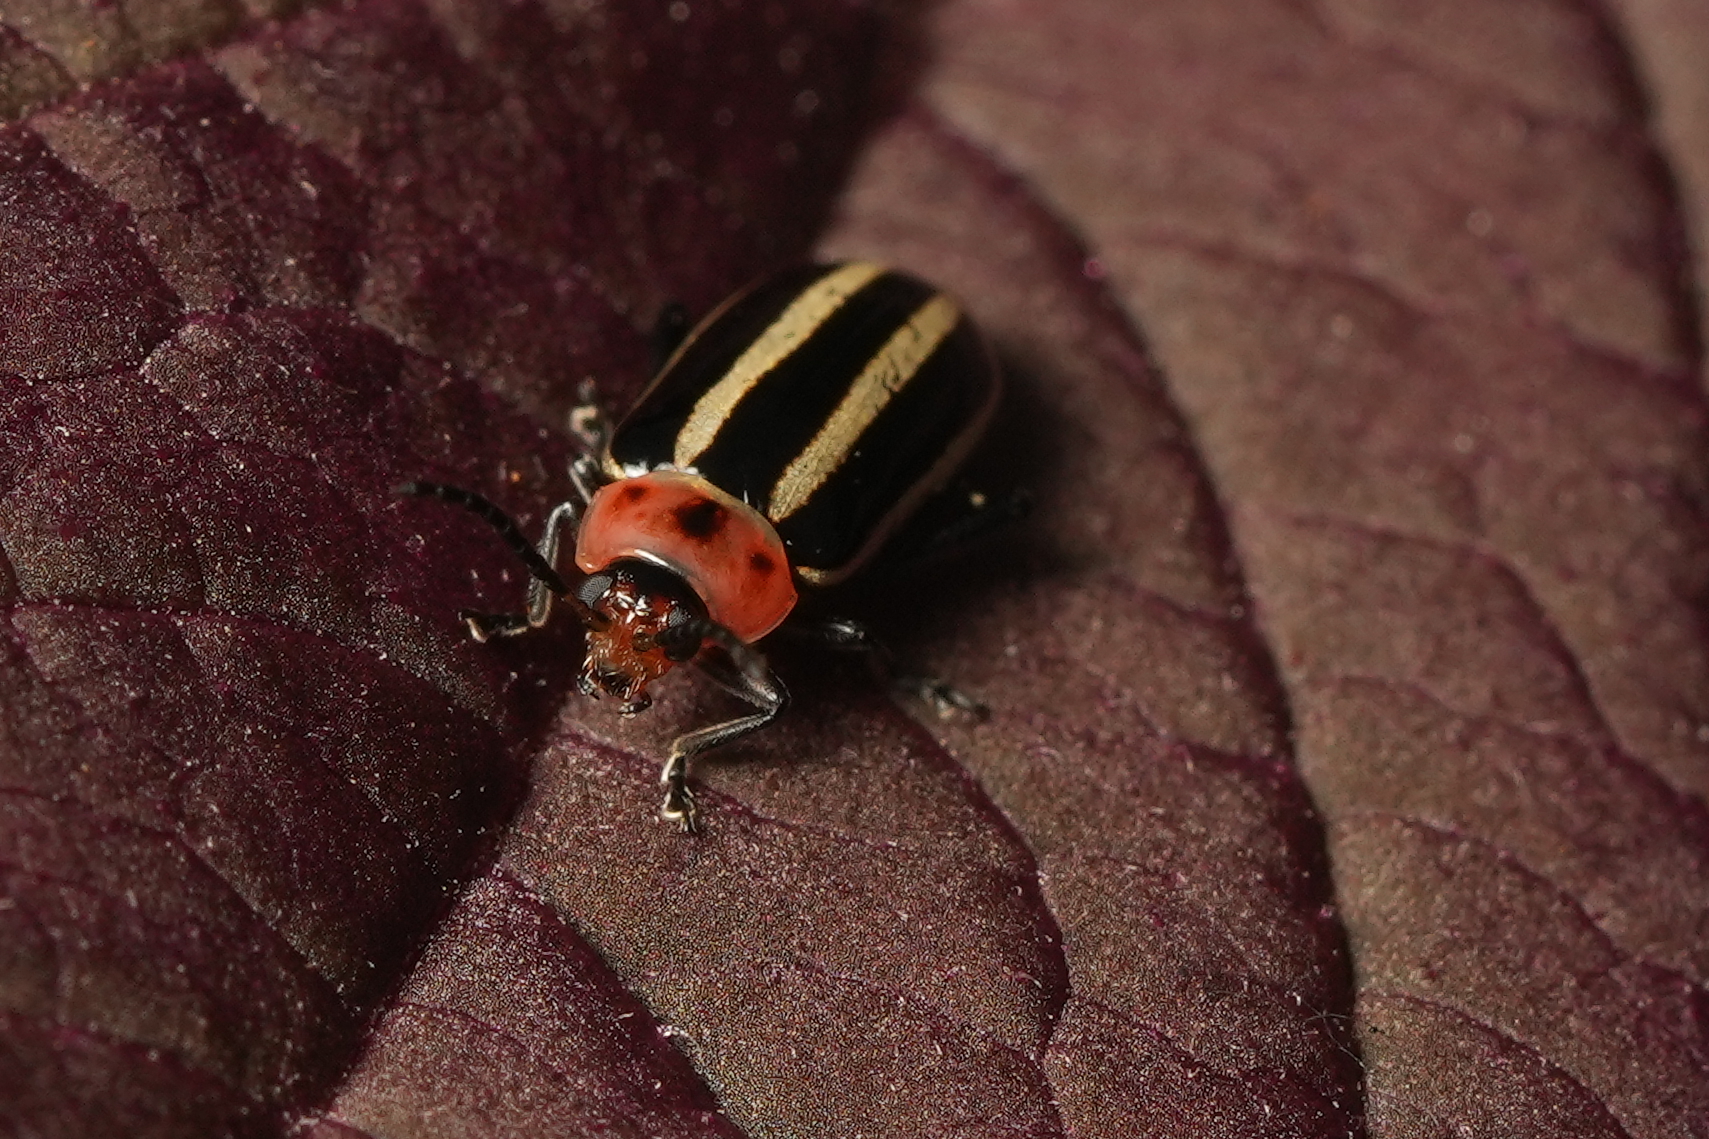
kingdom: Animalia
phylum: Arthropoda
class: Insecta
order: Coleoptera
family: Chrysomelidae
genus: Disonycha
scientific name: Disonycha glabrata
